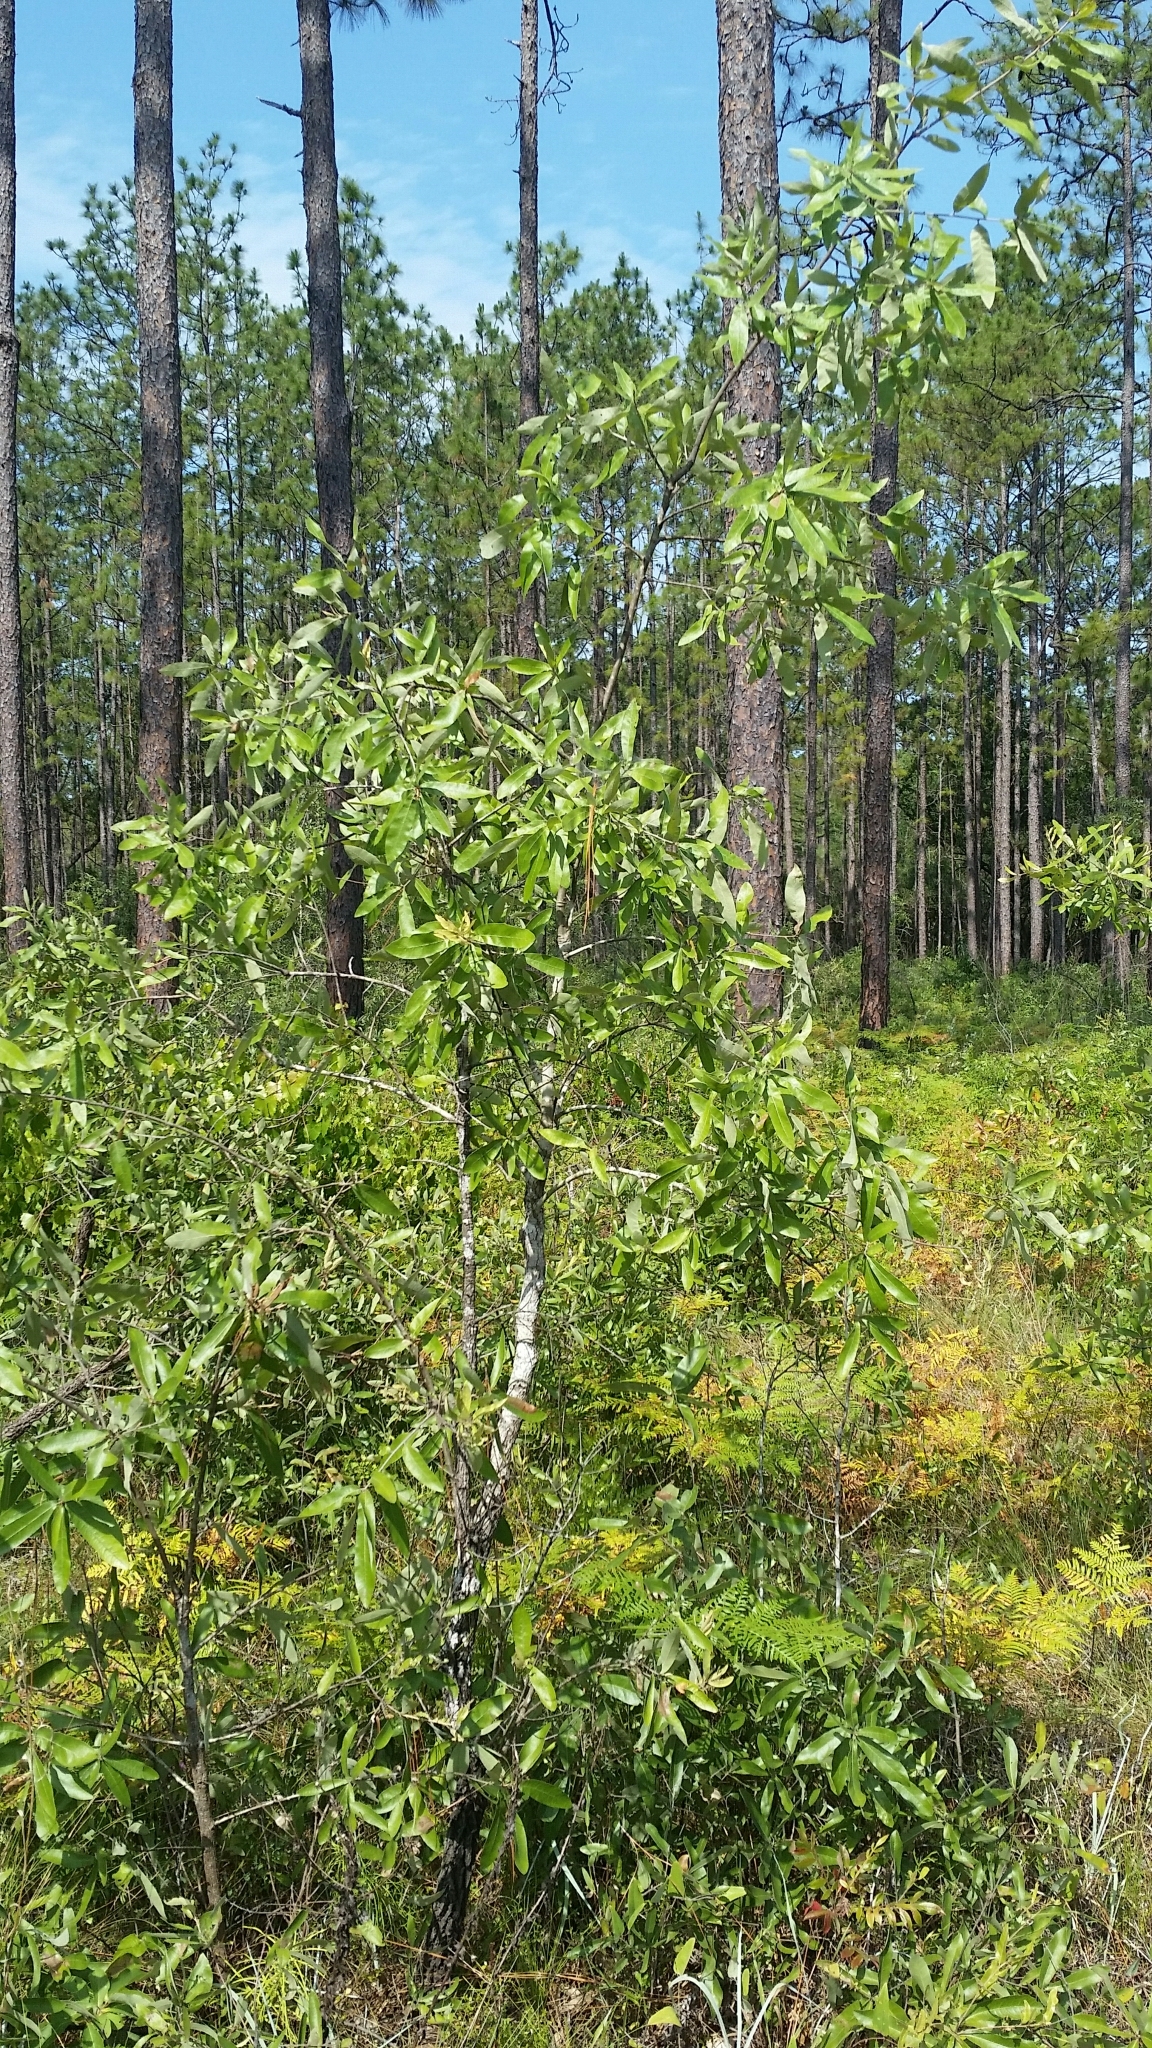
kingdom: Plantae
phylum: Tracheophyta
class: Magnoliopsida
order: Fagales
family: Fagaceae
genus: Quercus
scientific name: Quercus incana
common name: Bluejack oak
